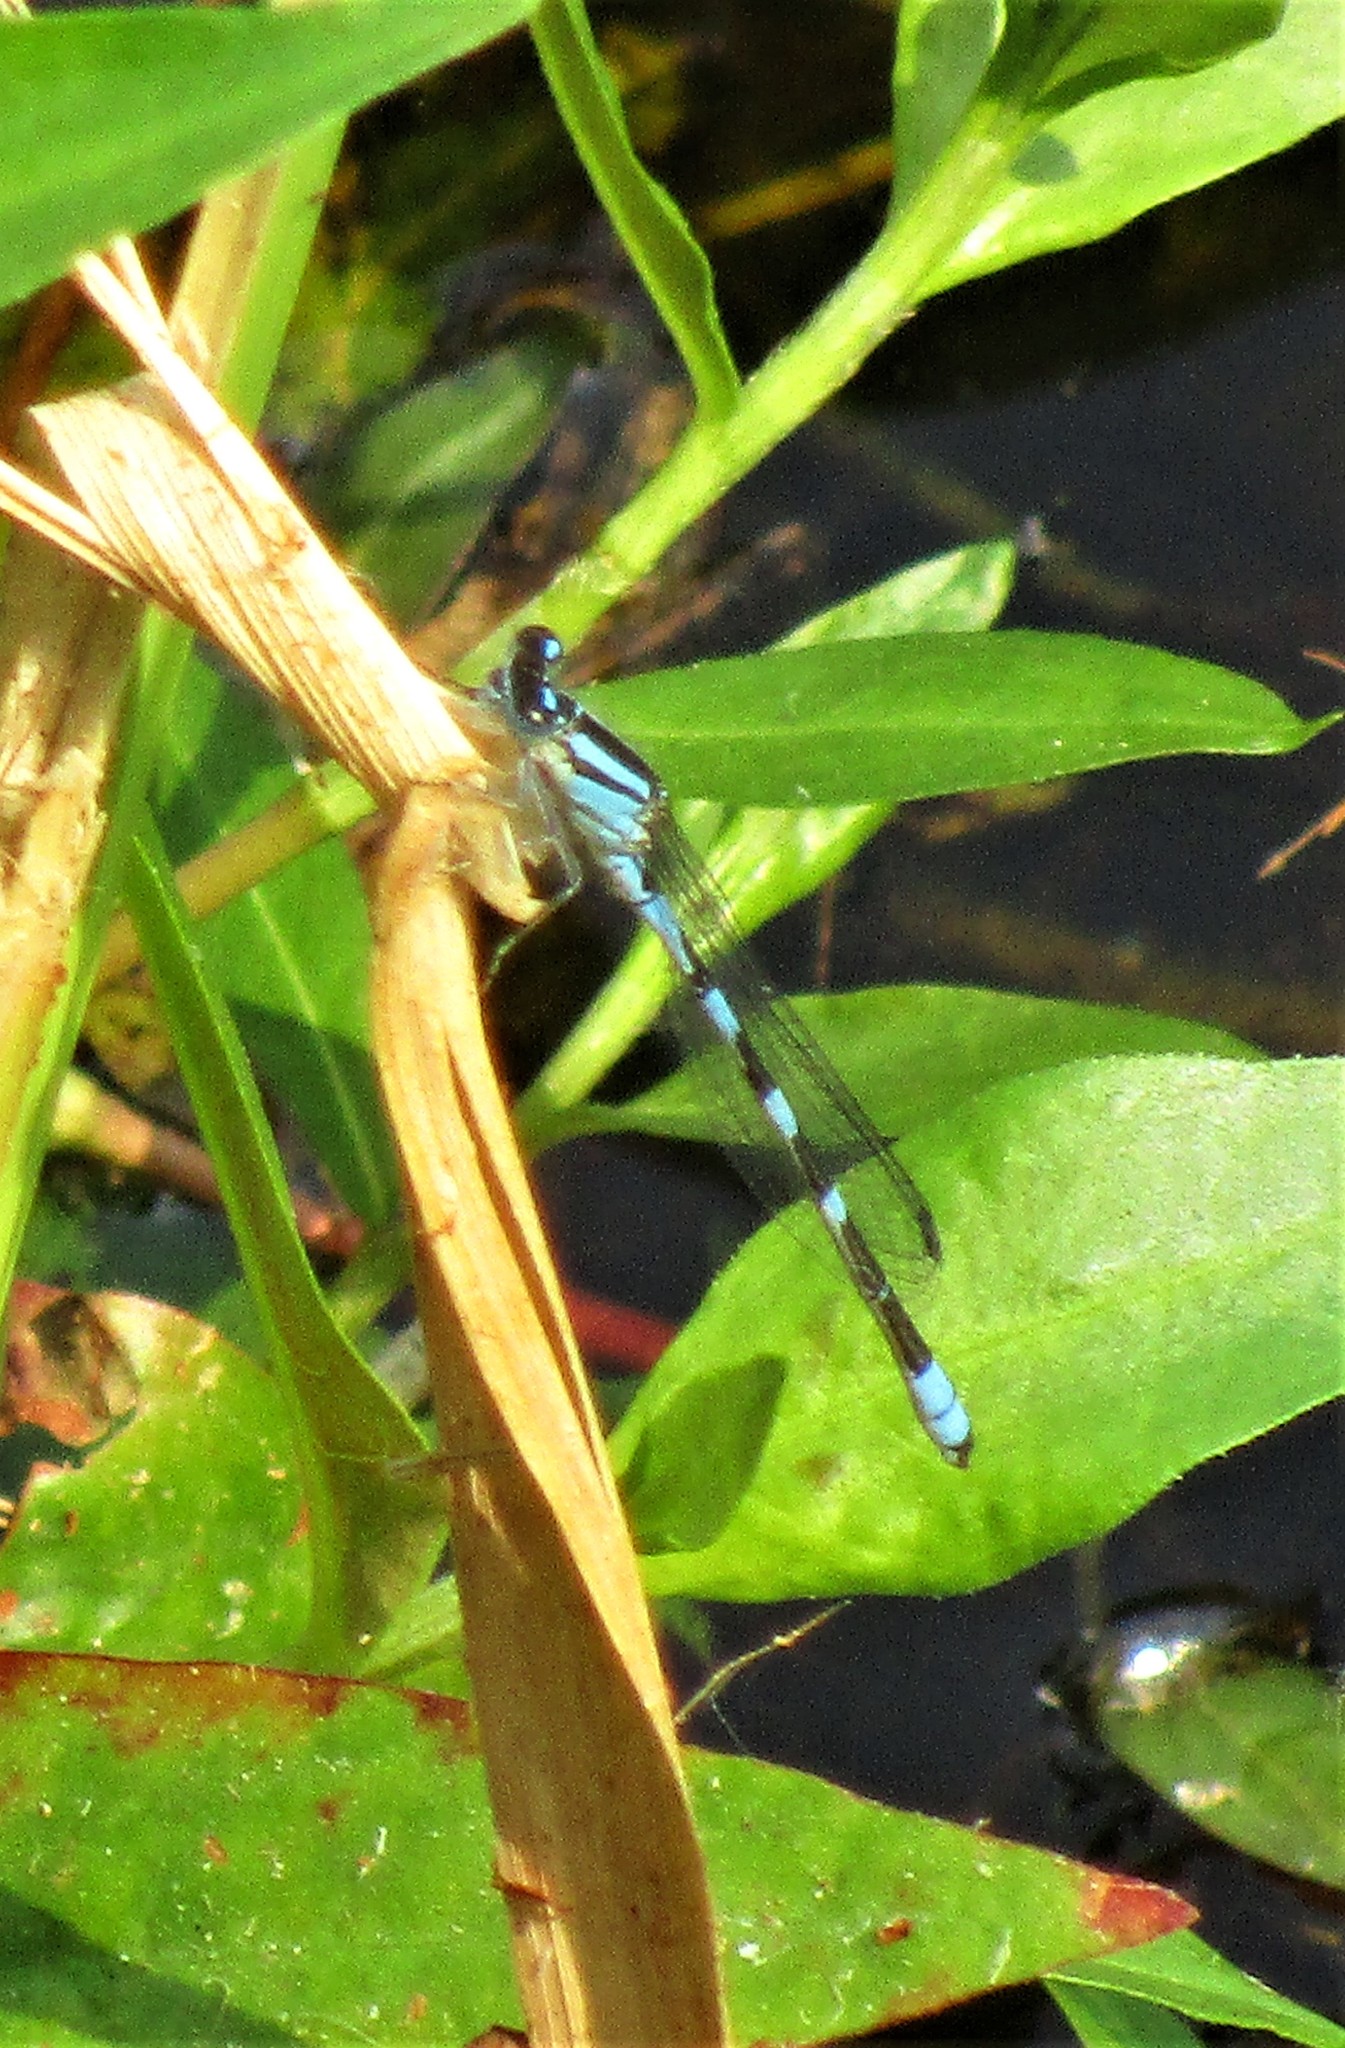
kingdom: Animalia
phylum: Arthropoda
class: Insecta
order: Odonata
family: Coenagrionidae
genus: Enallagma
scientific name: Enallagma carunculatum
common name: Tule bluet
